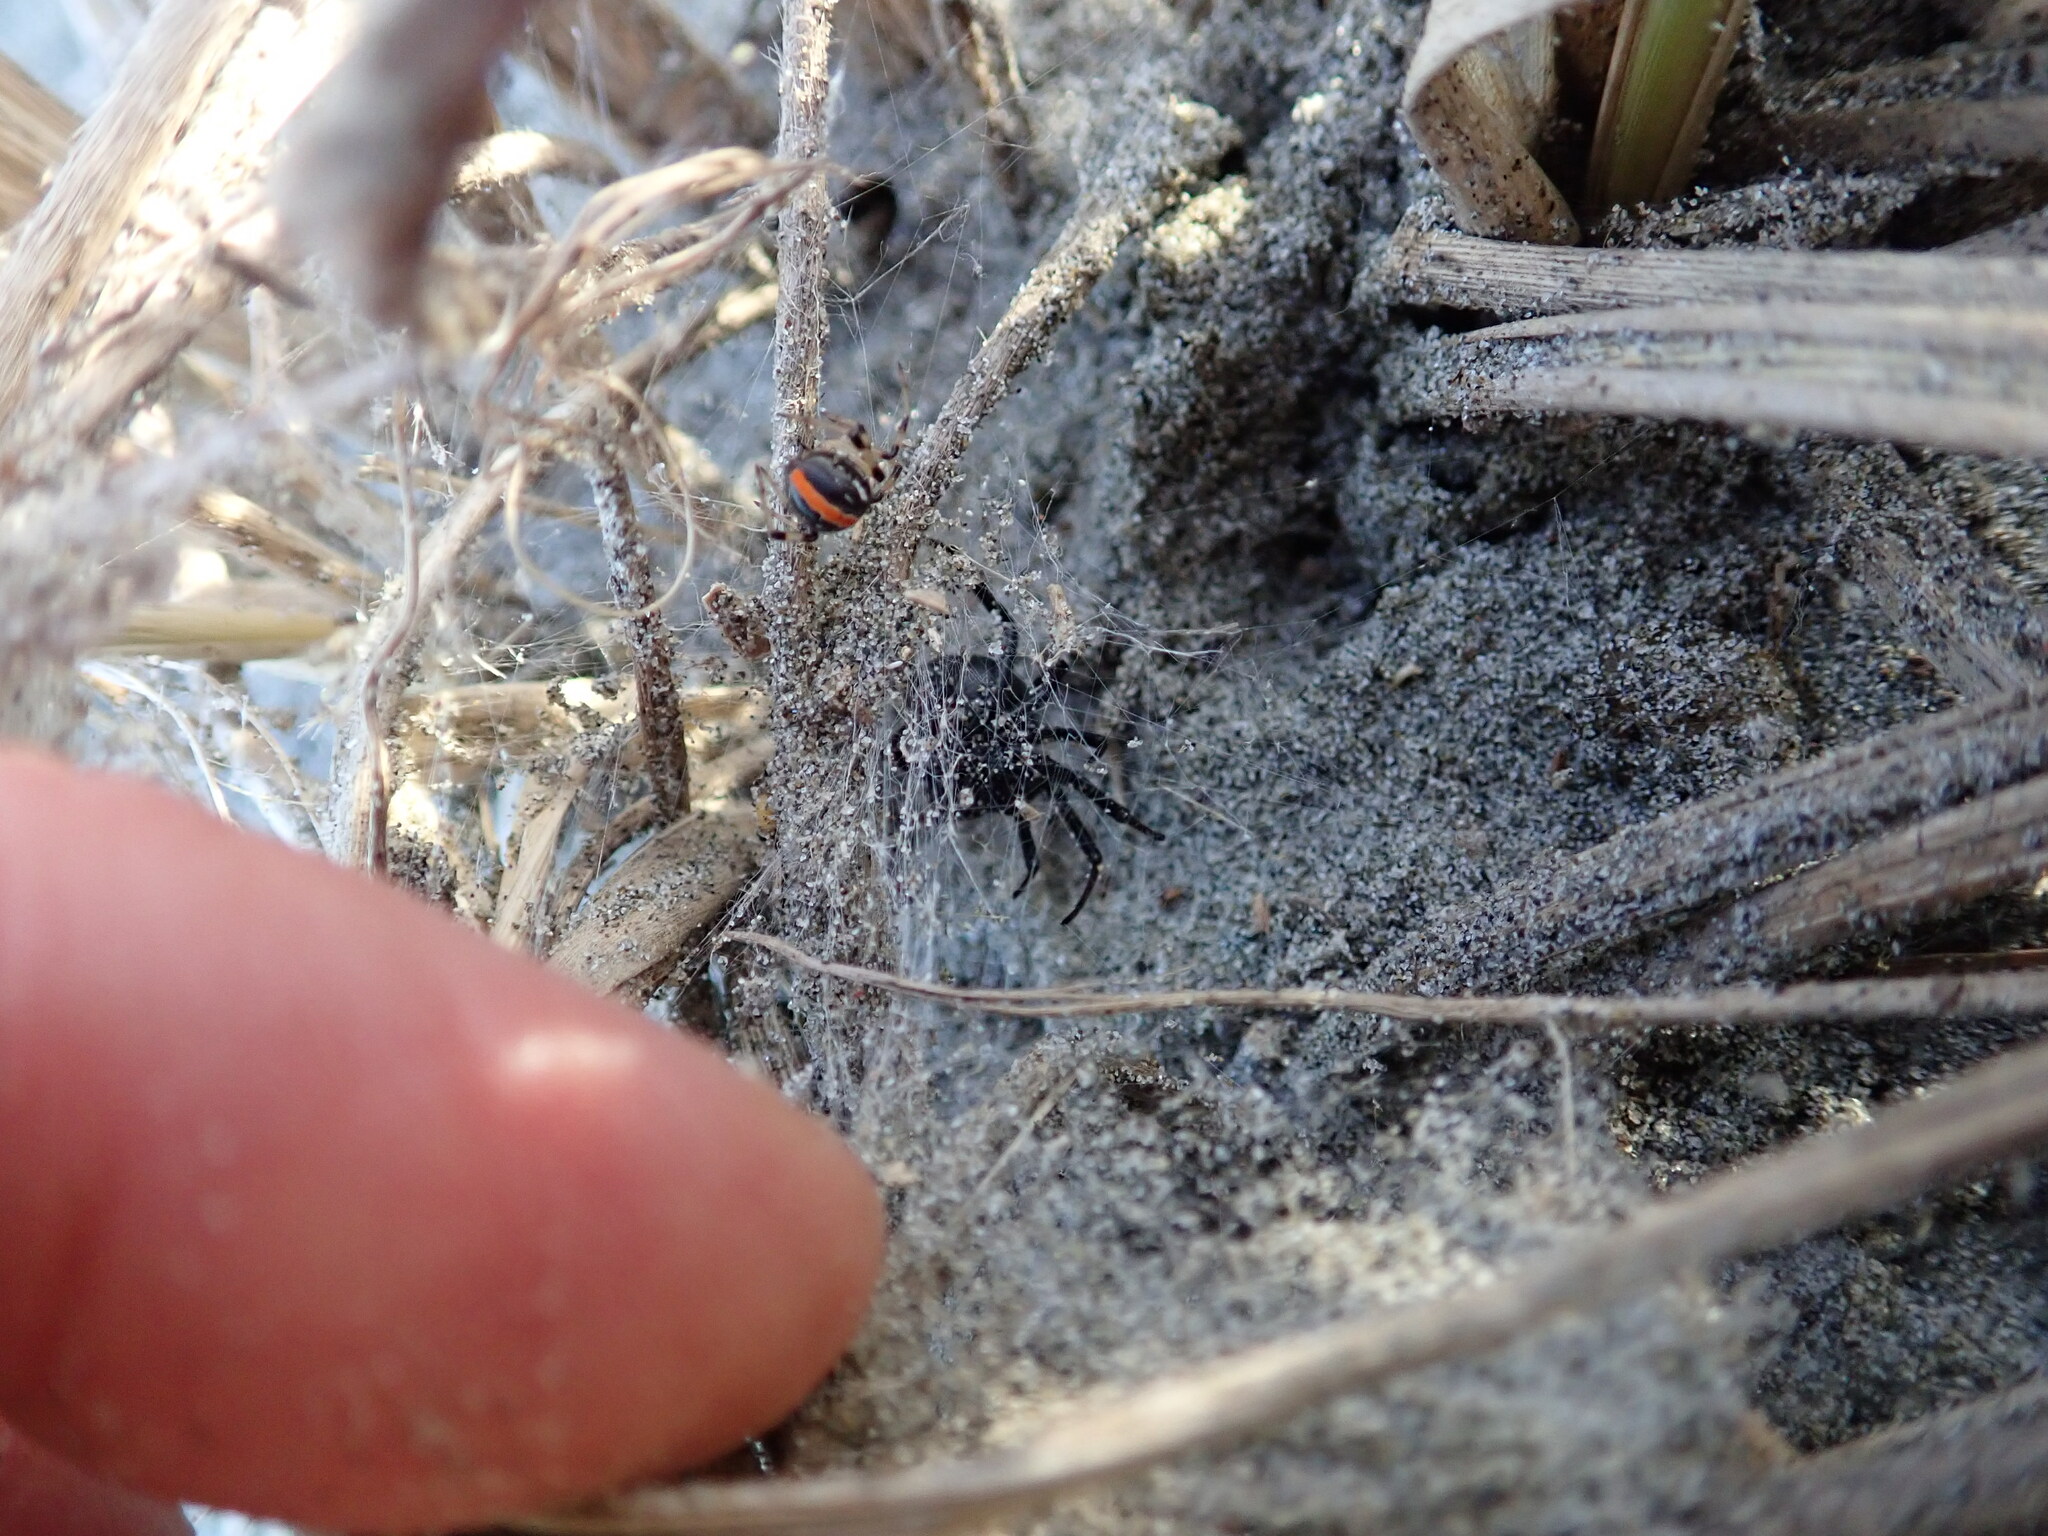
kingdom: Animalia
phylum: Arthropoda
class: Arachnida
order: Araneae
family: Theridiidae
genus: Latrodectus
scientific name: Latrodectus katipo
